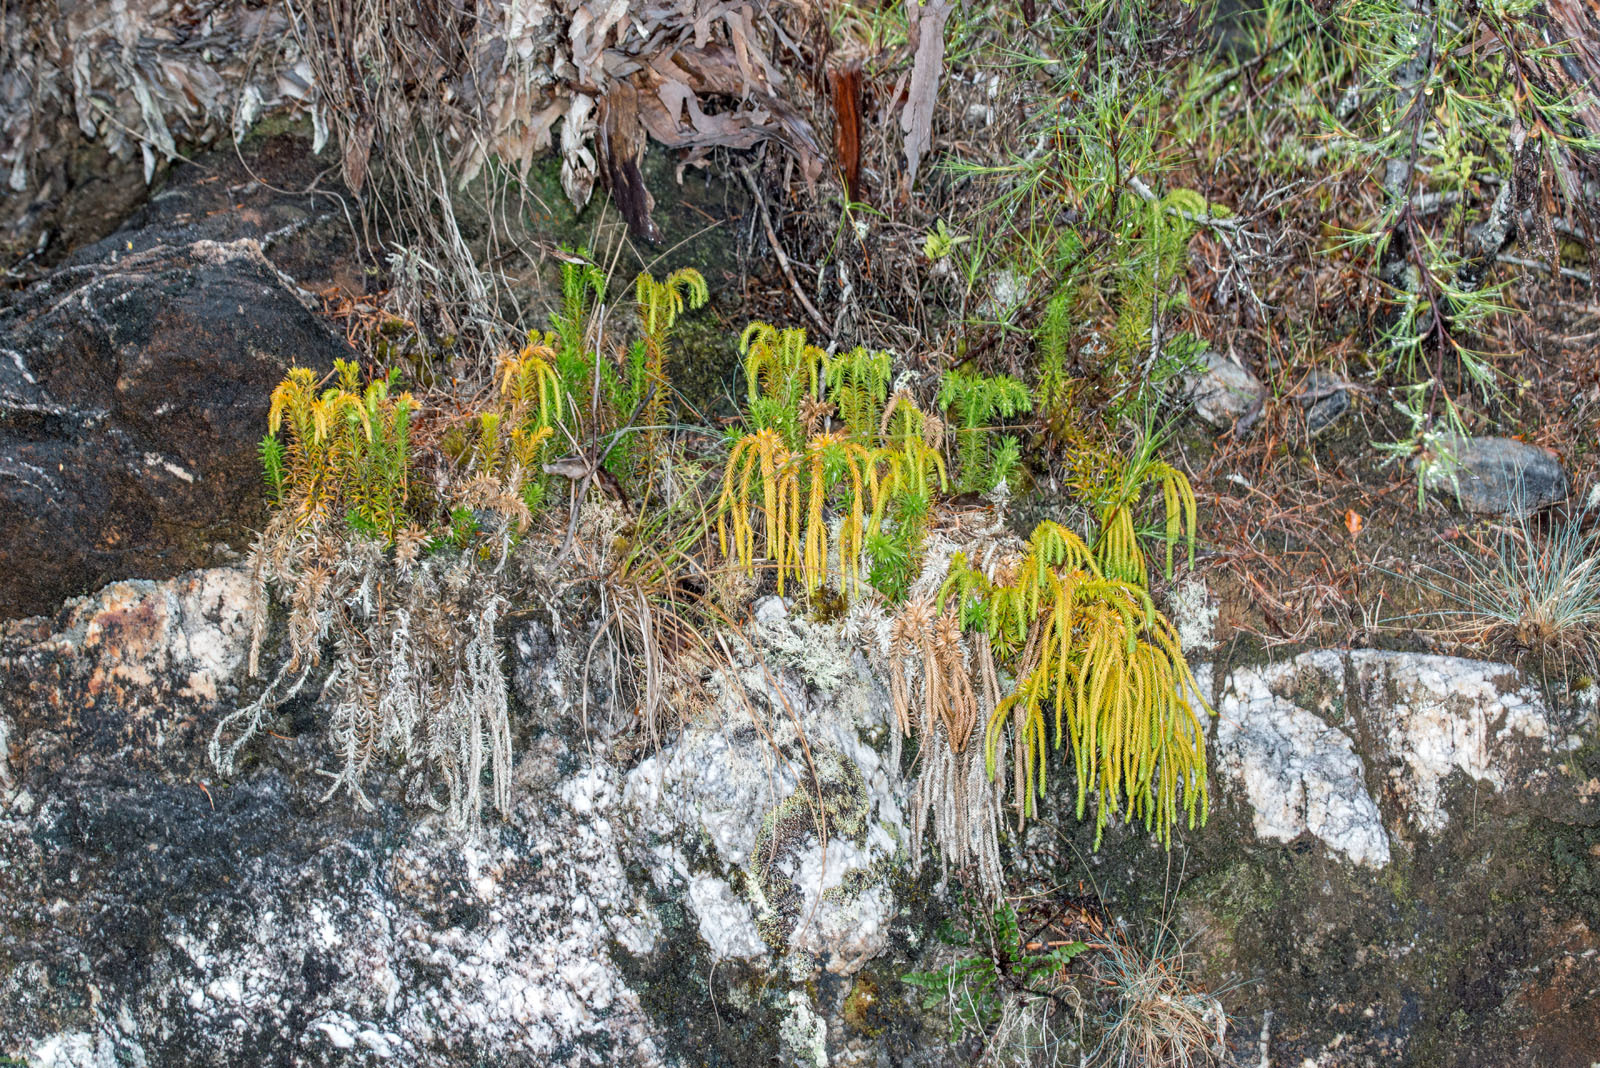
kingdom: Plantae
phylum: Tracheophyta
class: Lycopodiopsida
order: Lycopodiales
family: Lycopodiaceae
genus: Phlegmariurus
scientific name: Phlegmariurus varius
